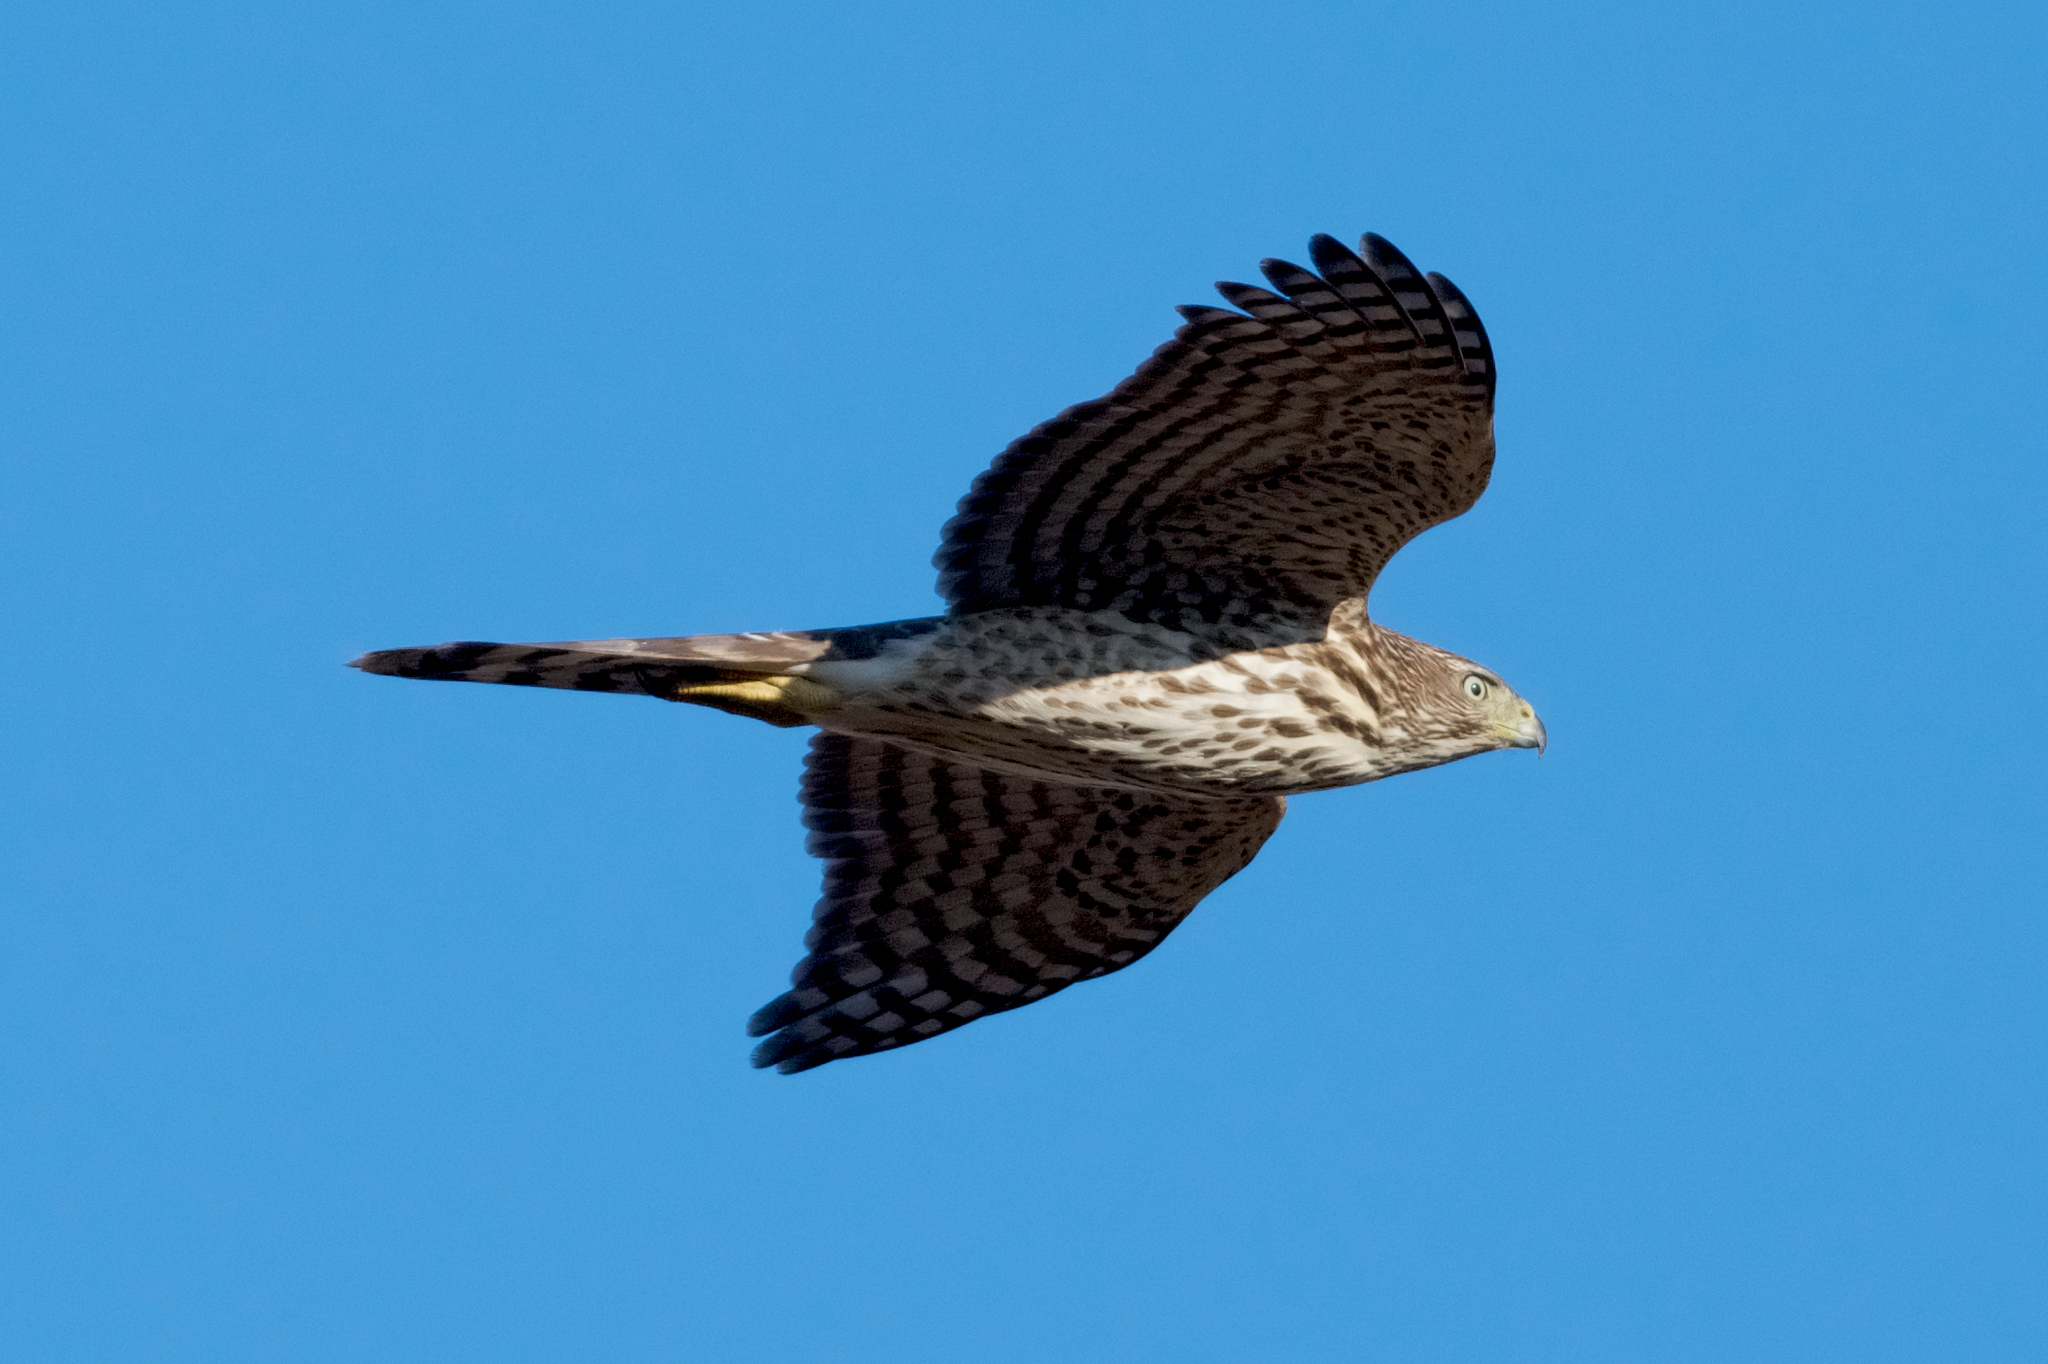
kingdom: Animalia
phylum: Chordata
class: Aves
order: Accipitriformes
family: Accipitridae
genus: Accipiter
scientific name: Accipiter cooperii
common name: Cooper's hawk
